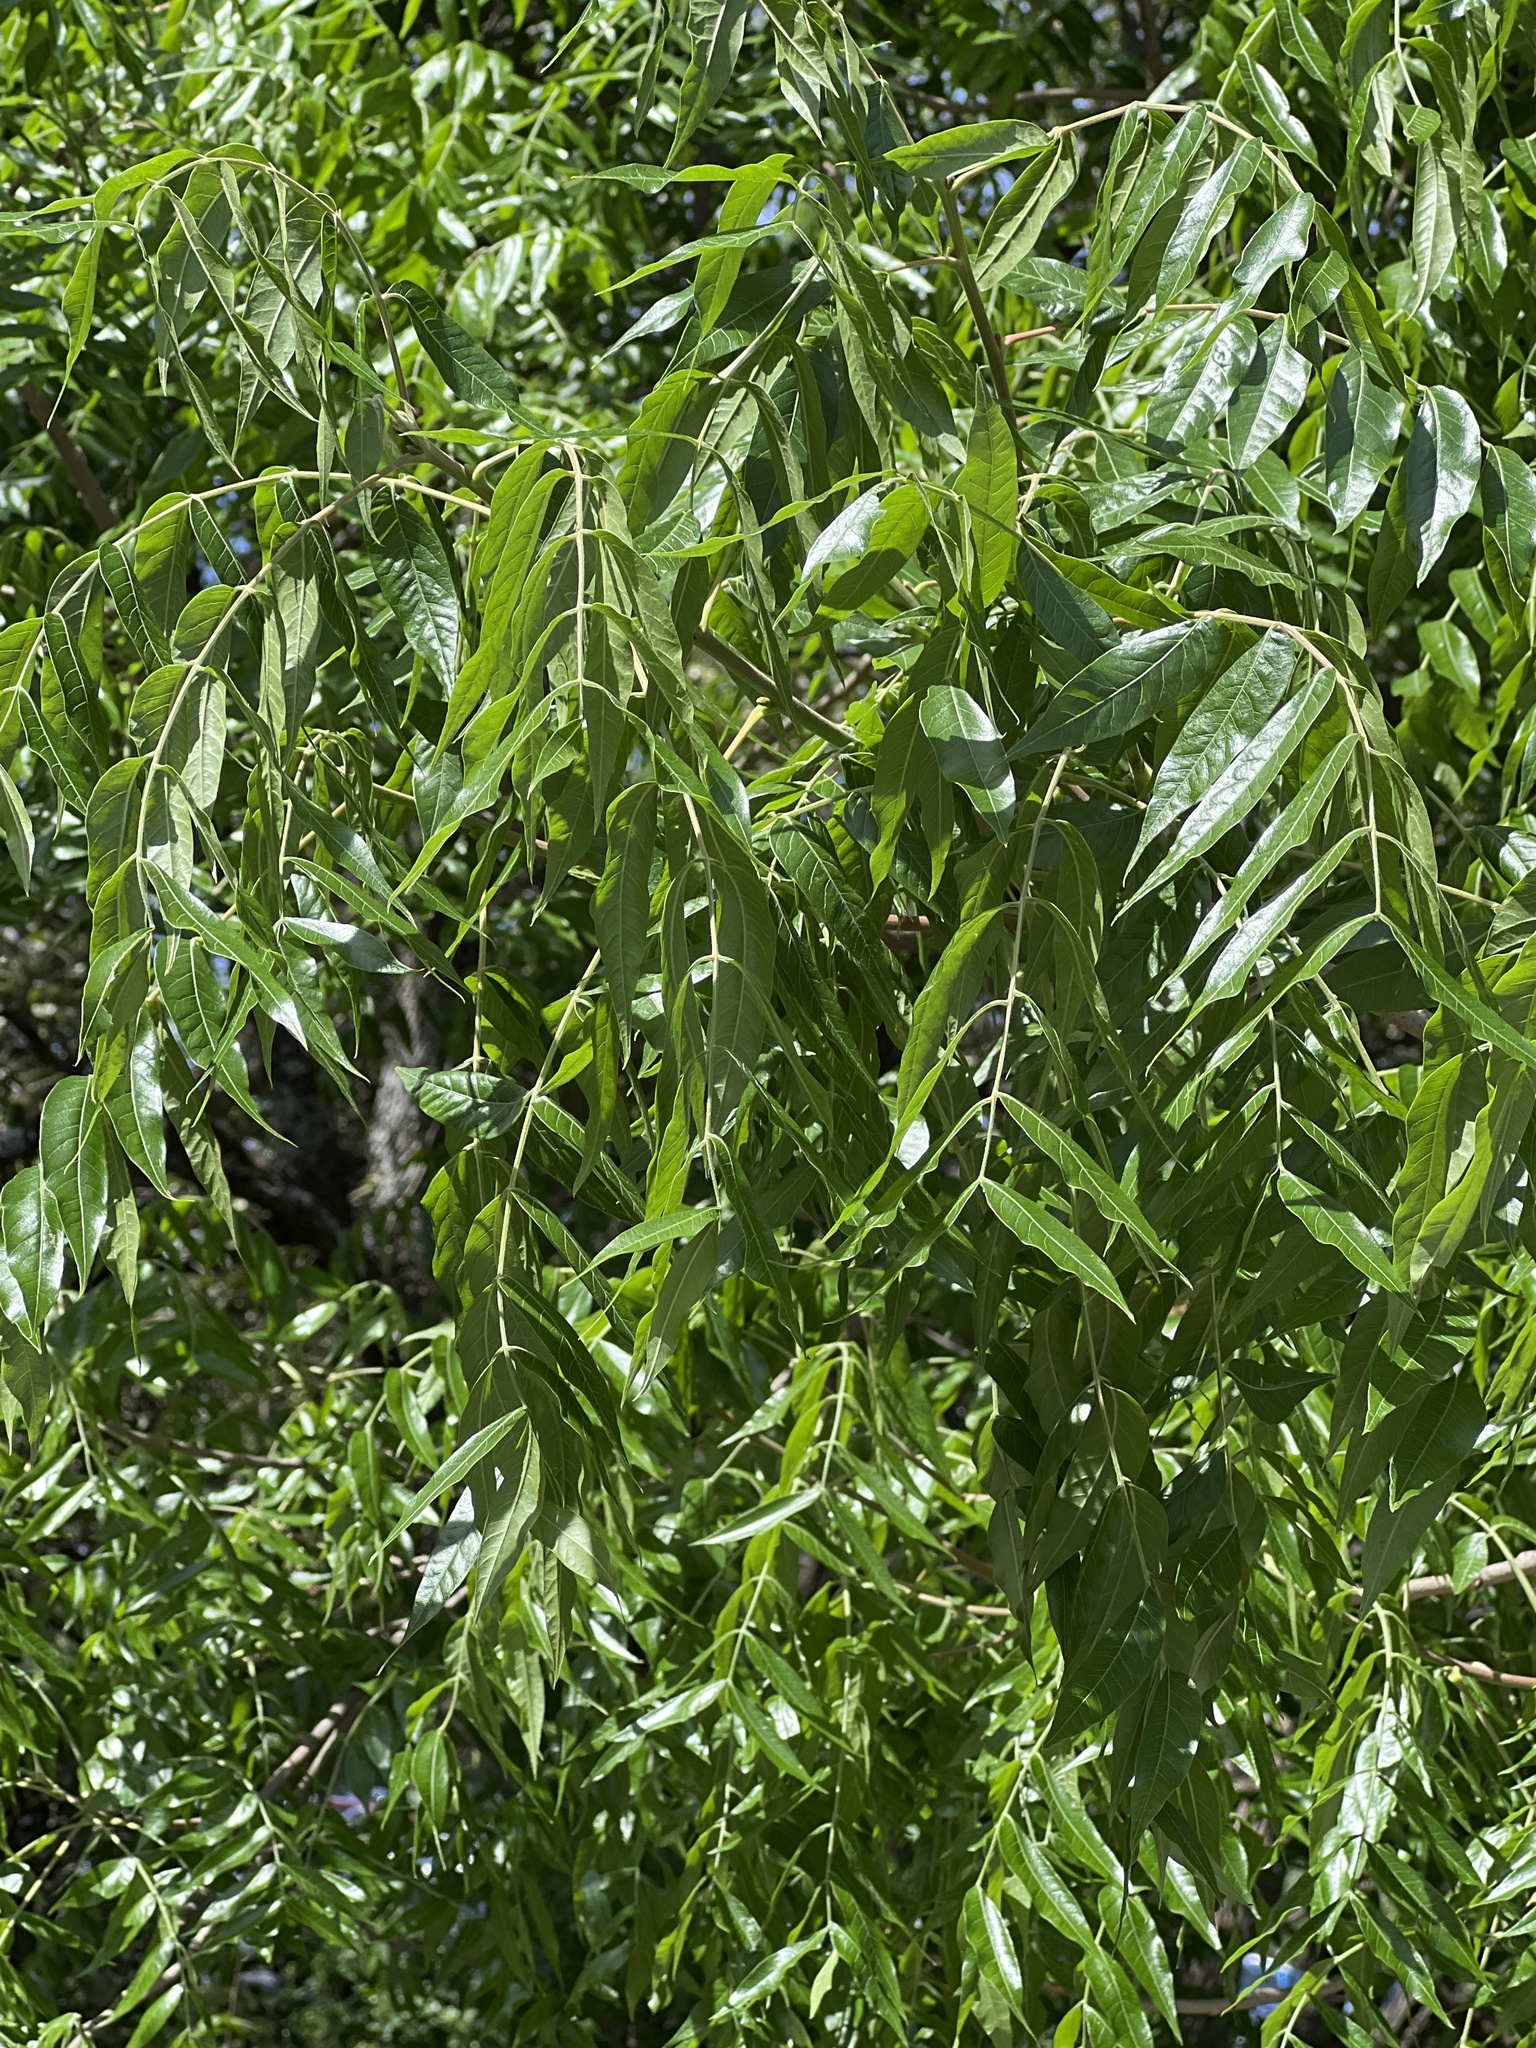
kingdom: Plantae
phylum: Tracheophyta
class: Magnoliopsida
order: Sapindales
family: Anacardiaceae
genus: Pistacia
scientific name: Pistacia chinensis
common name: Chinese pistache
